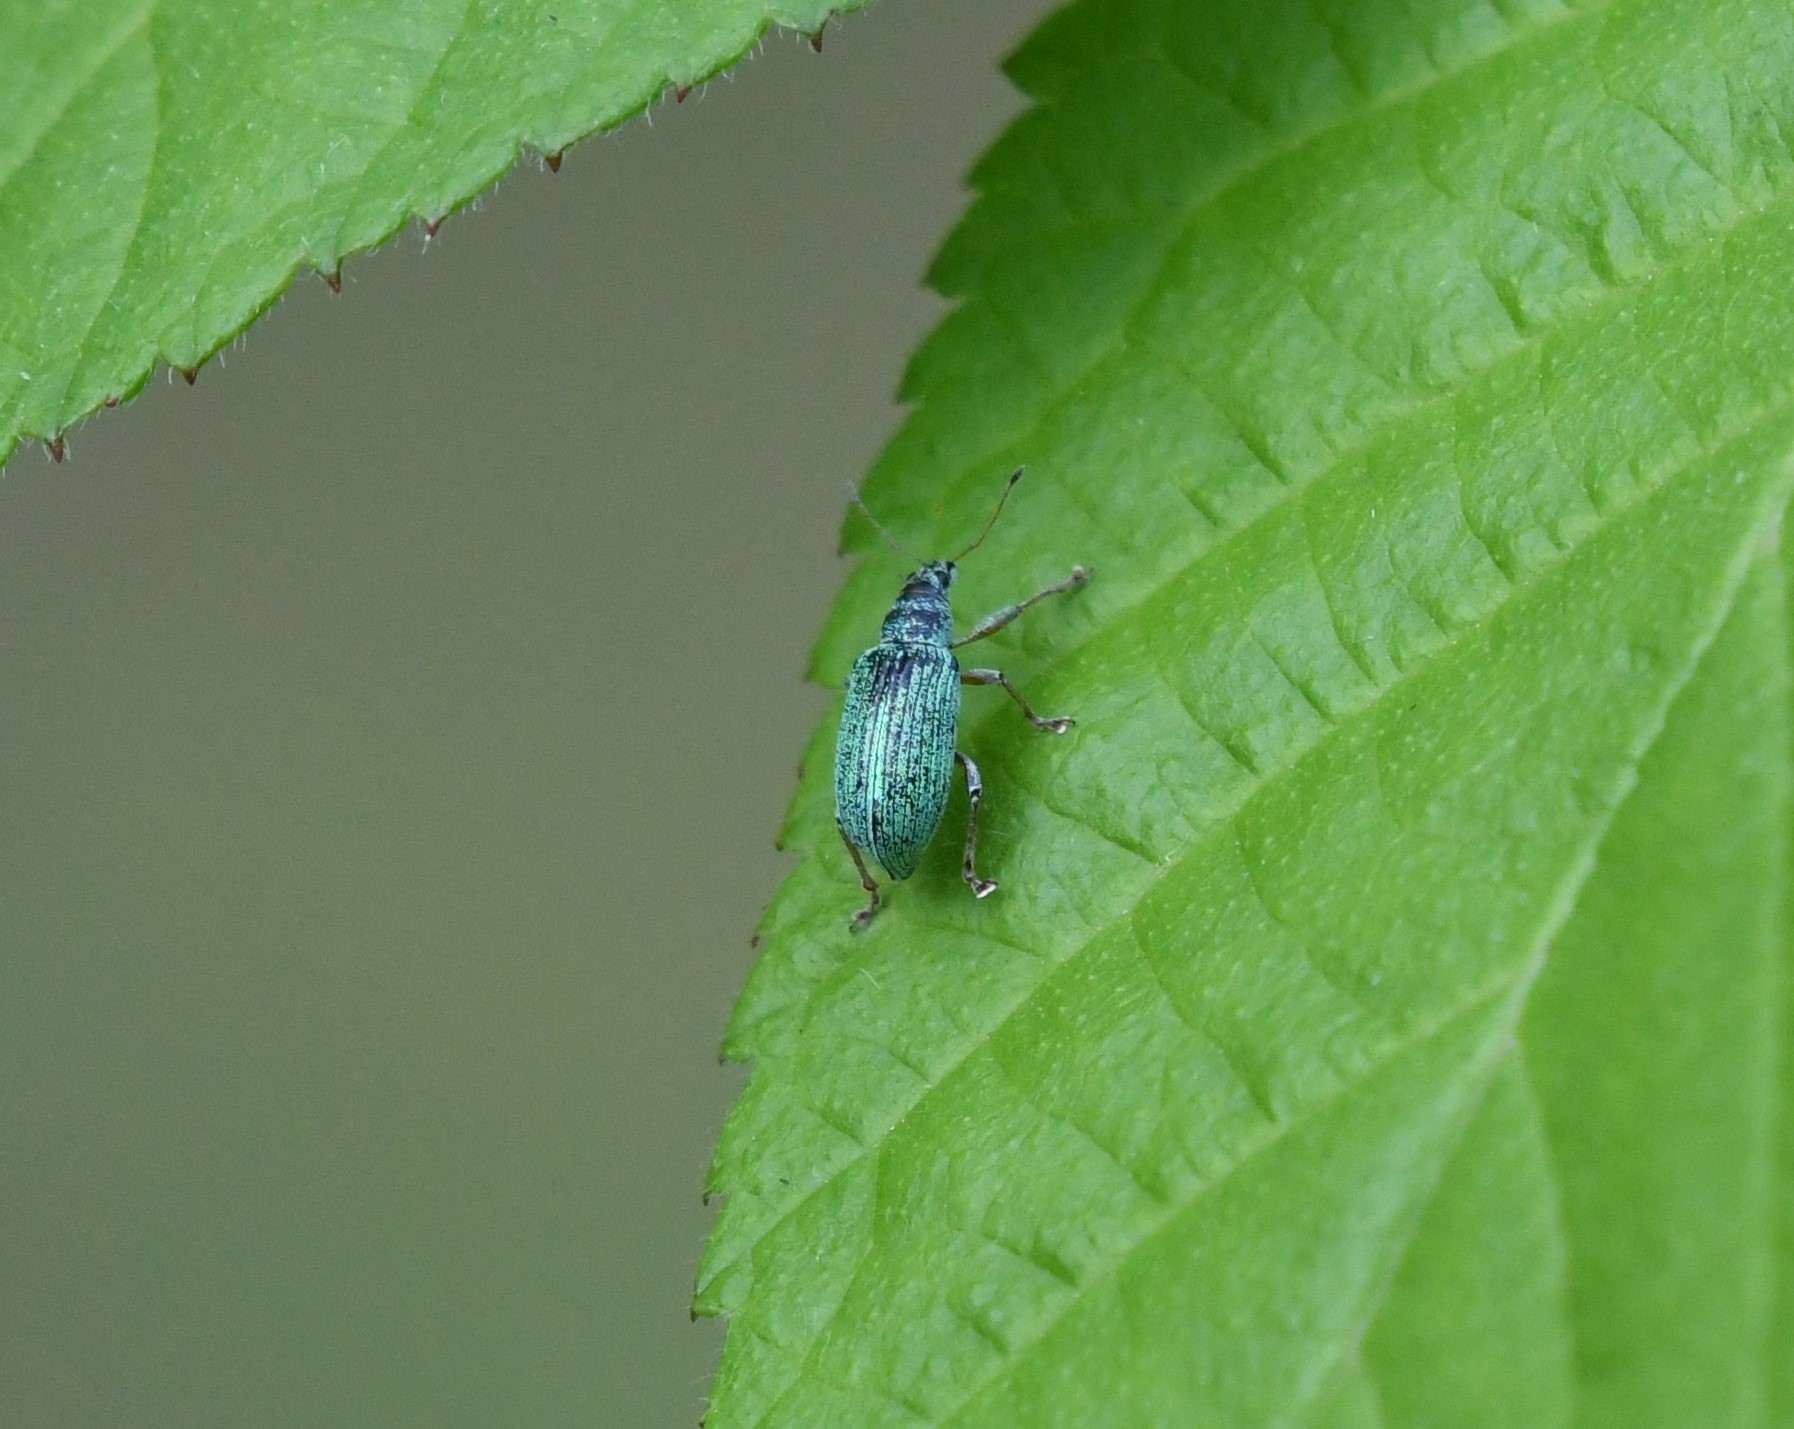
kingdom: Animalia
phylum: Arthropoda
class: Insecta
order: Coleoptera
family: Curculionidae
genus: Polydrusus
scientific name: Polydrusus formosus
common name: Weevil
